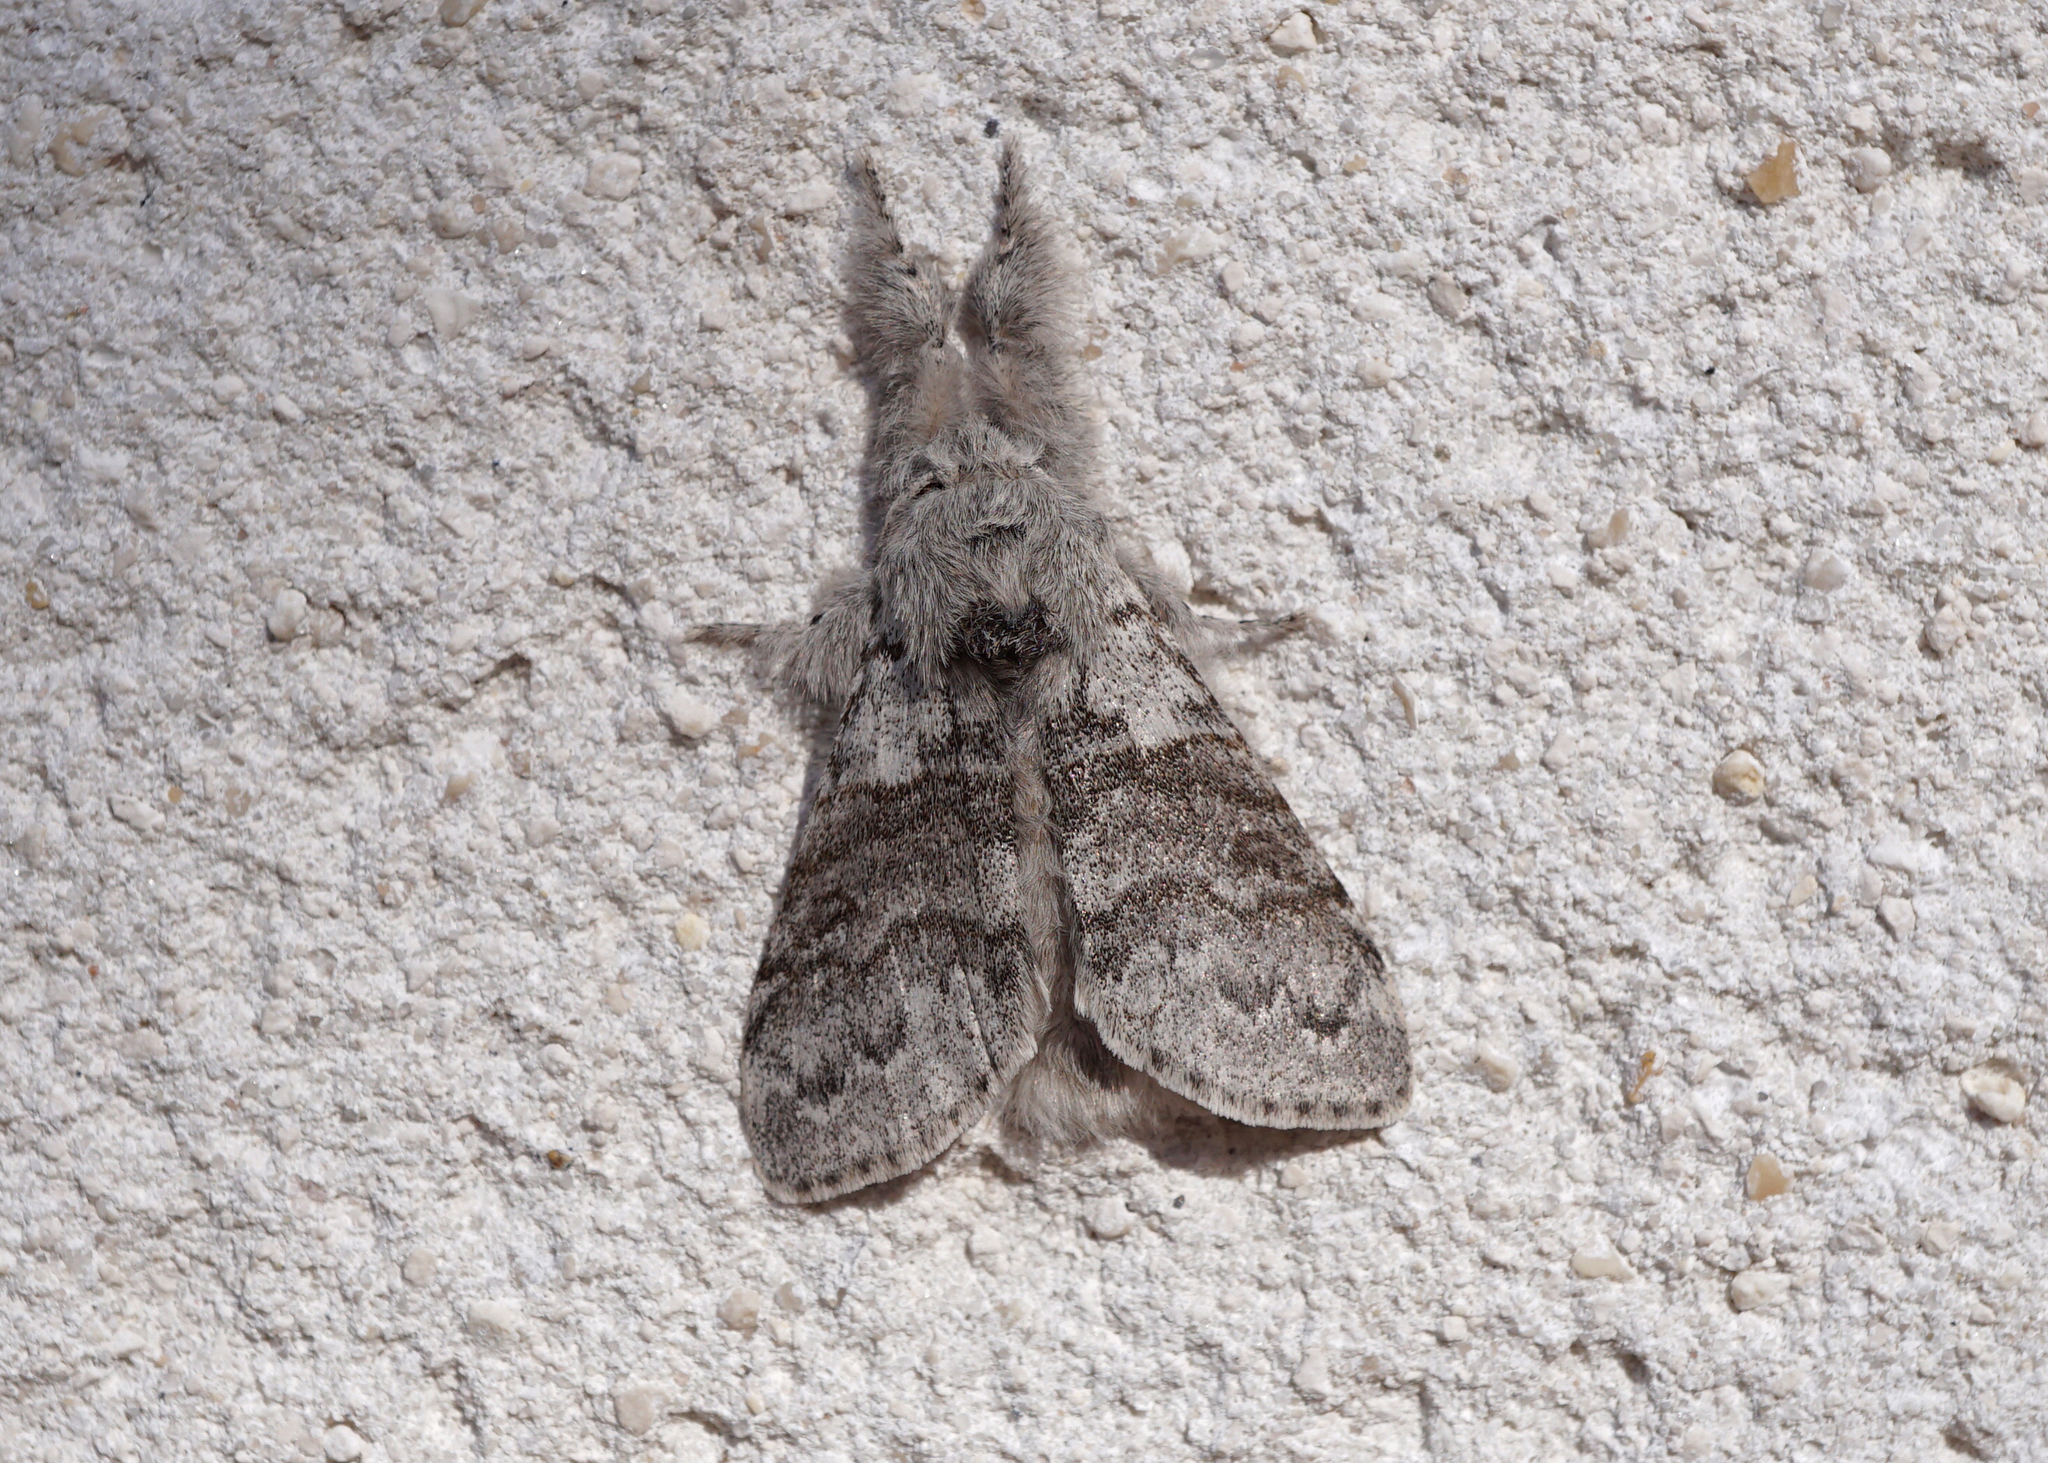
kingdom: Animalia
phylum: Arthropoda
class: Insecta
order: Lepidoptera
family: Erebidae
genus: Calliteara
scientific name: Calliteara pudibunda
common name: Pale tussock
